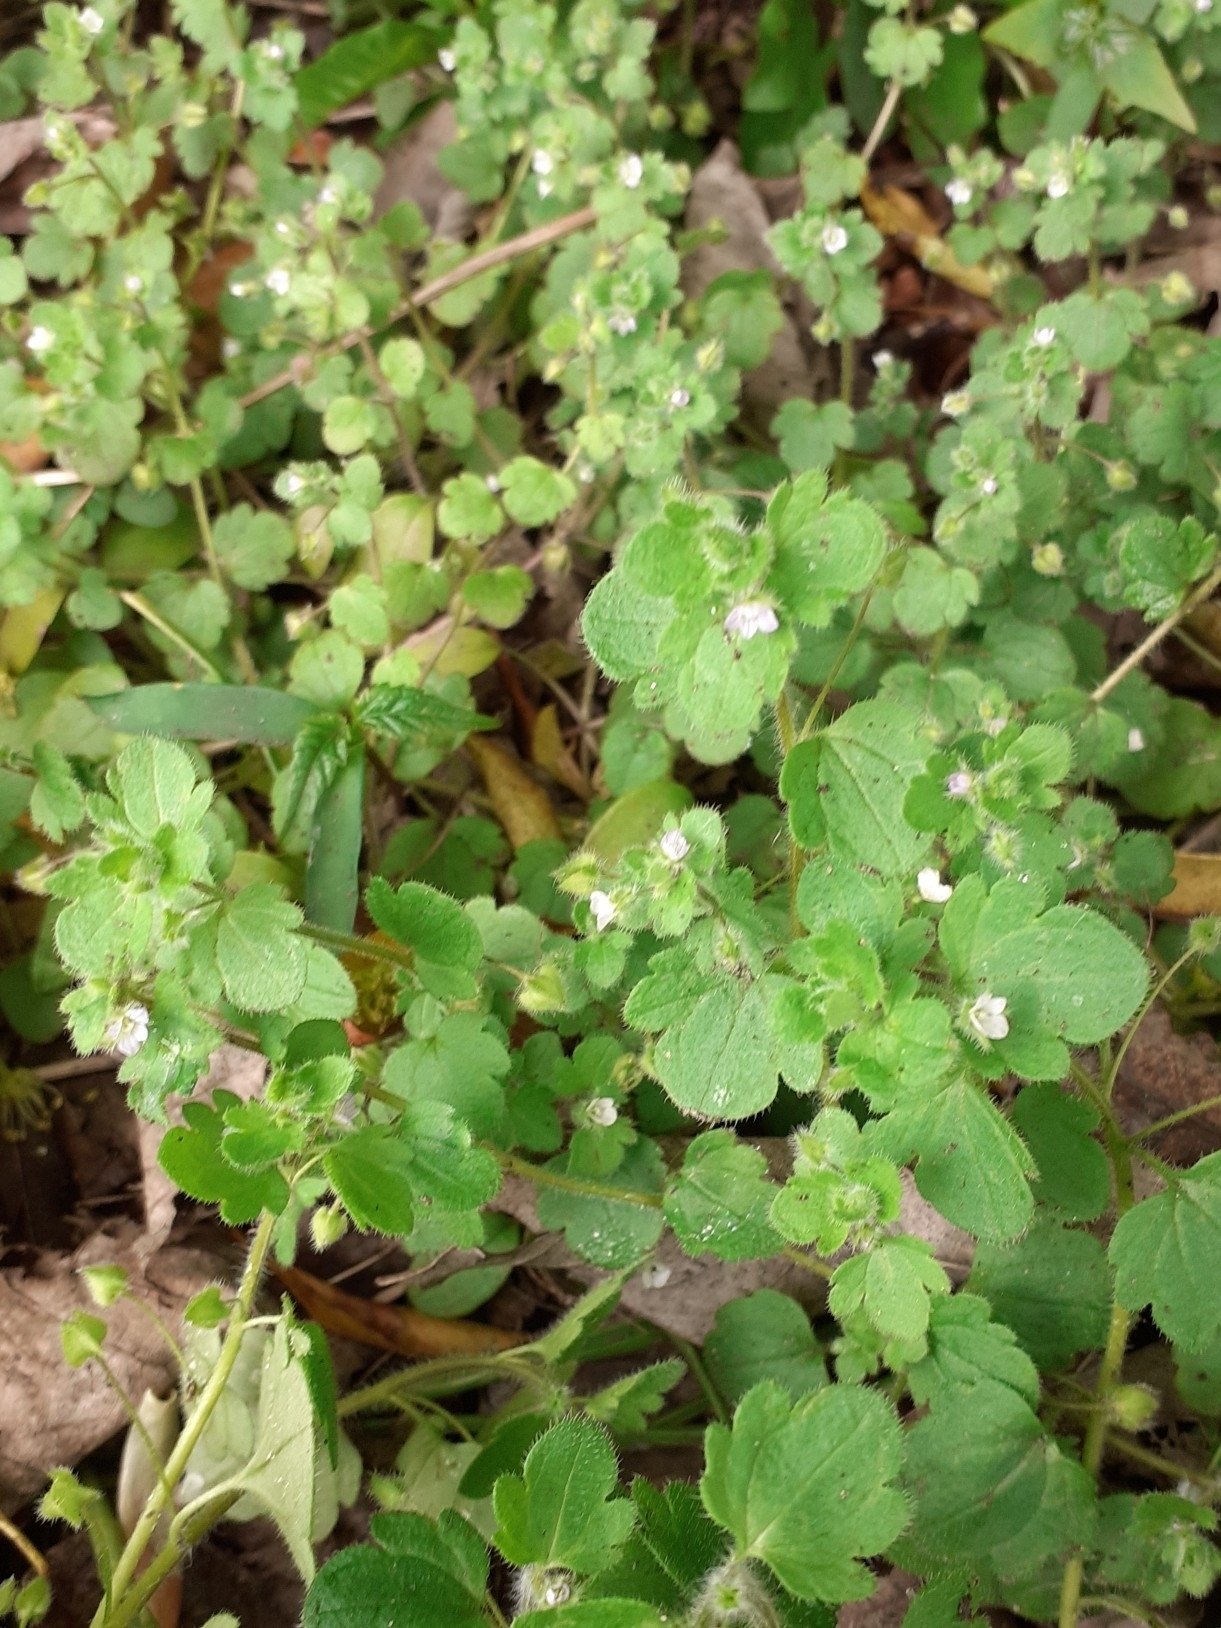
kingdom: Plantae
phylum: Tracheophyta
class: Magnoliopsida
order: Lamiales
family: Plantaginaceae
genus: Veronica
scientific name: Veronica sublobata
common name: False ivy-leaved speedwell
